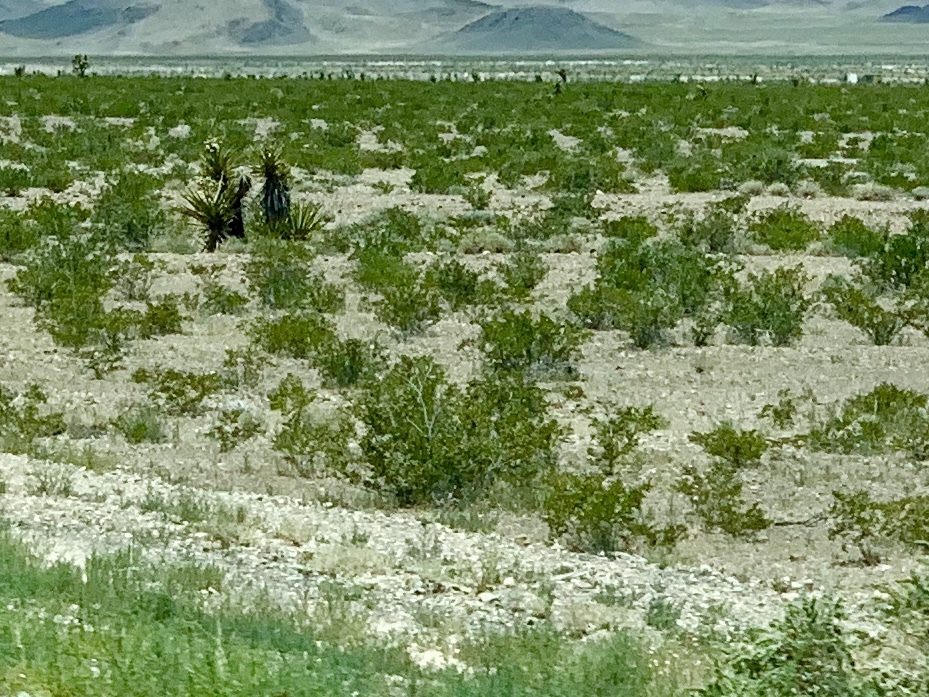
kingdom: Plantae
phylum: Tracheophyta
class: Magnoliopsida
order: Zygophyllales
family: Zygophyllaceae
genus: Larrea
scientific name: Larrea tridentata
